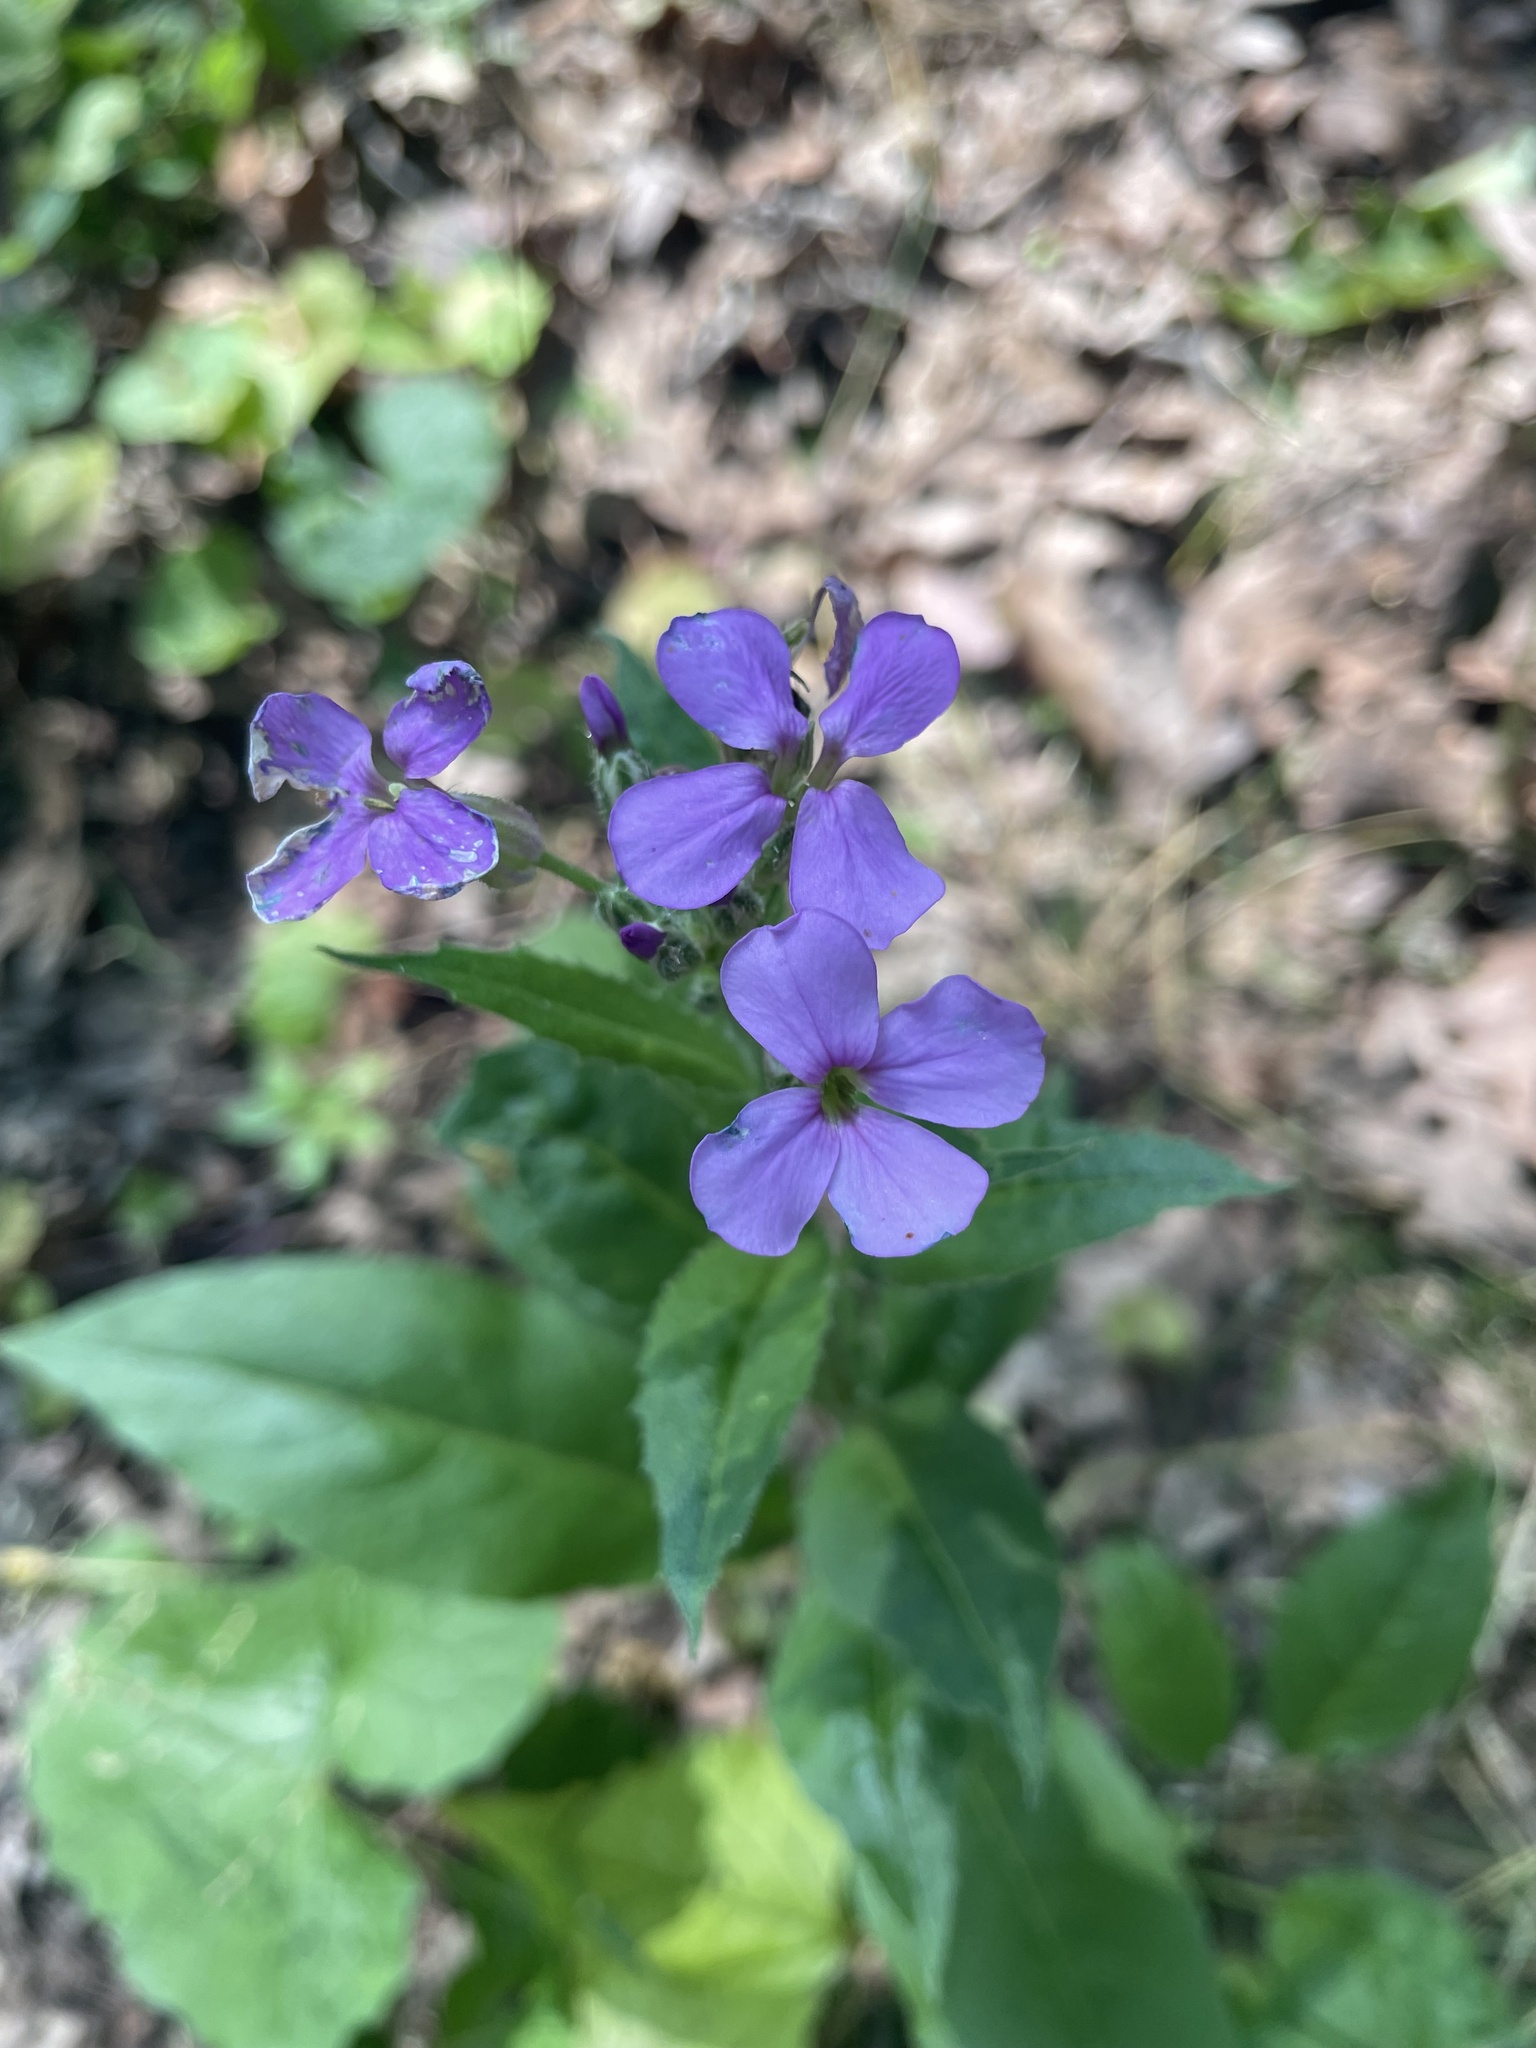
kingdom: Plantae
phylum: Tracheophyta
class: Magnoliopsida
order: Brassicales
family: Brassicaceae
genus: Hesperis
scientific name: Hesperis matronalis
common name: Dame's-violet
